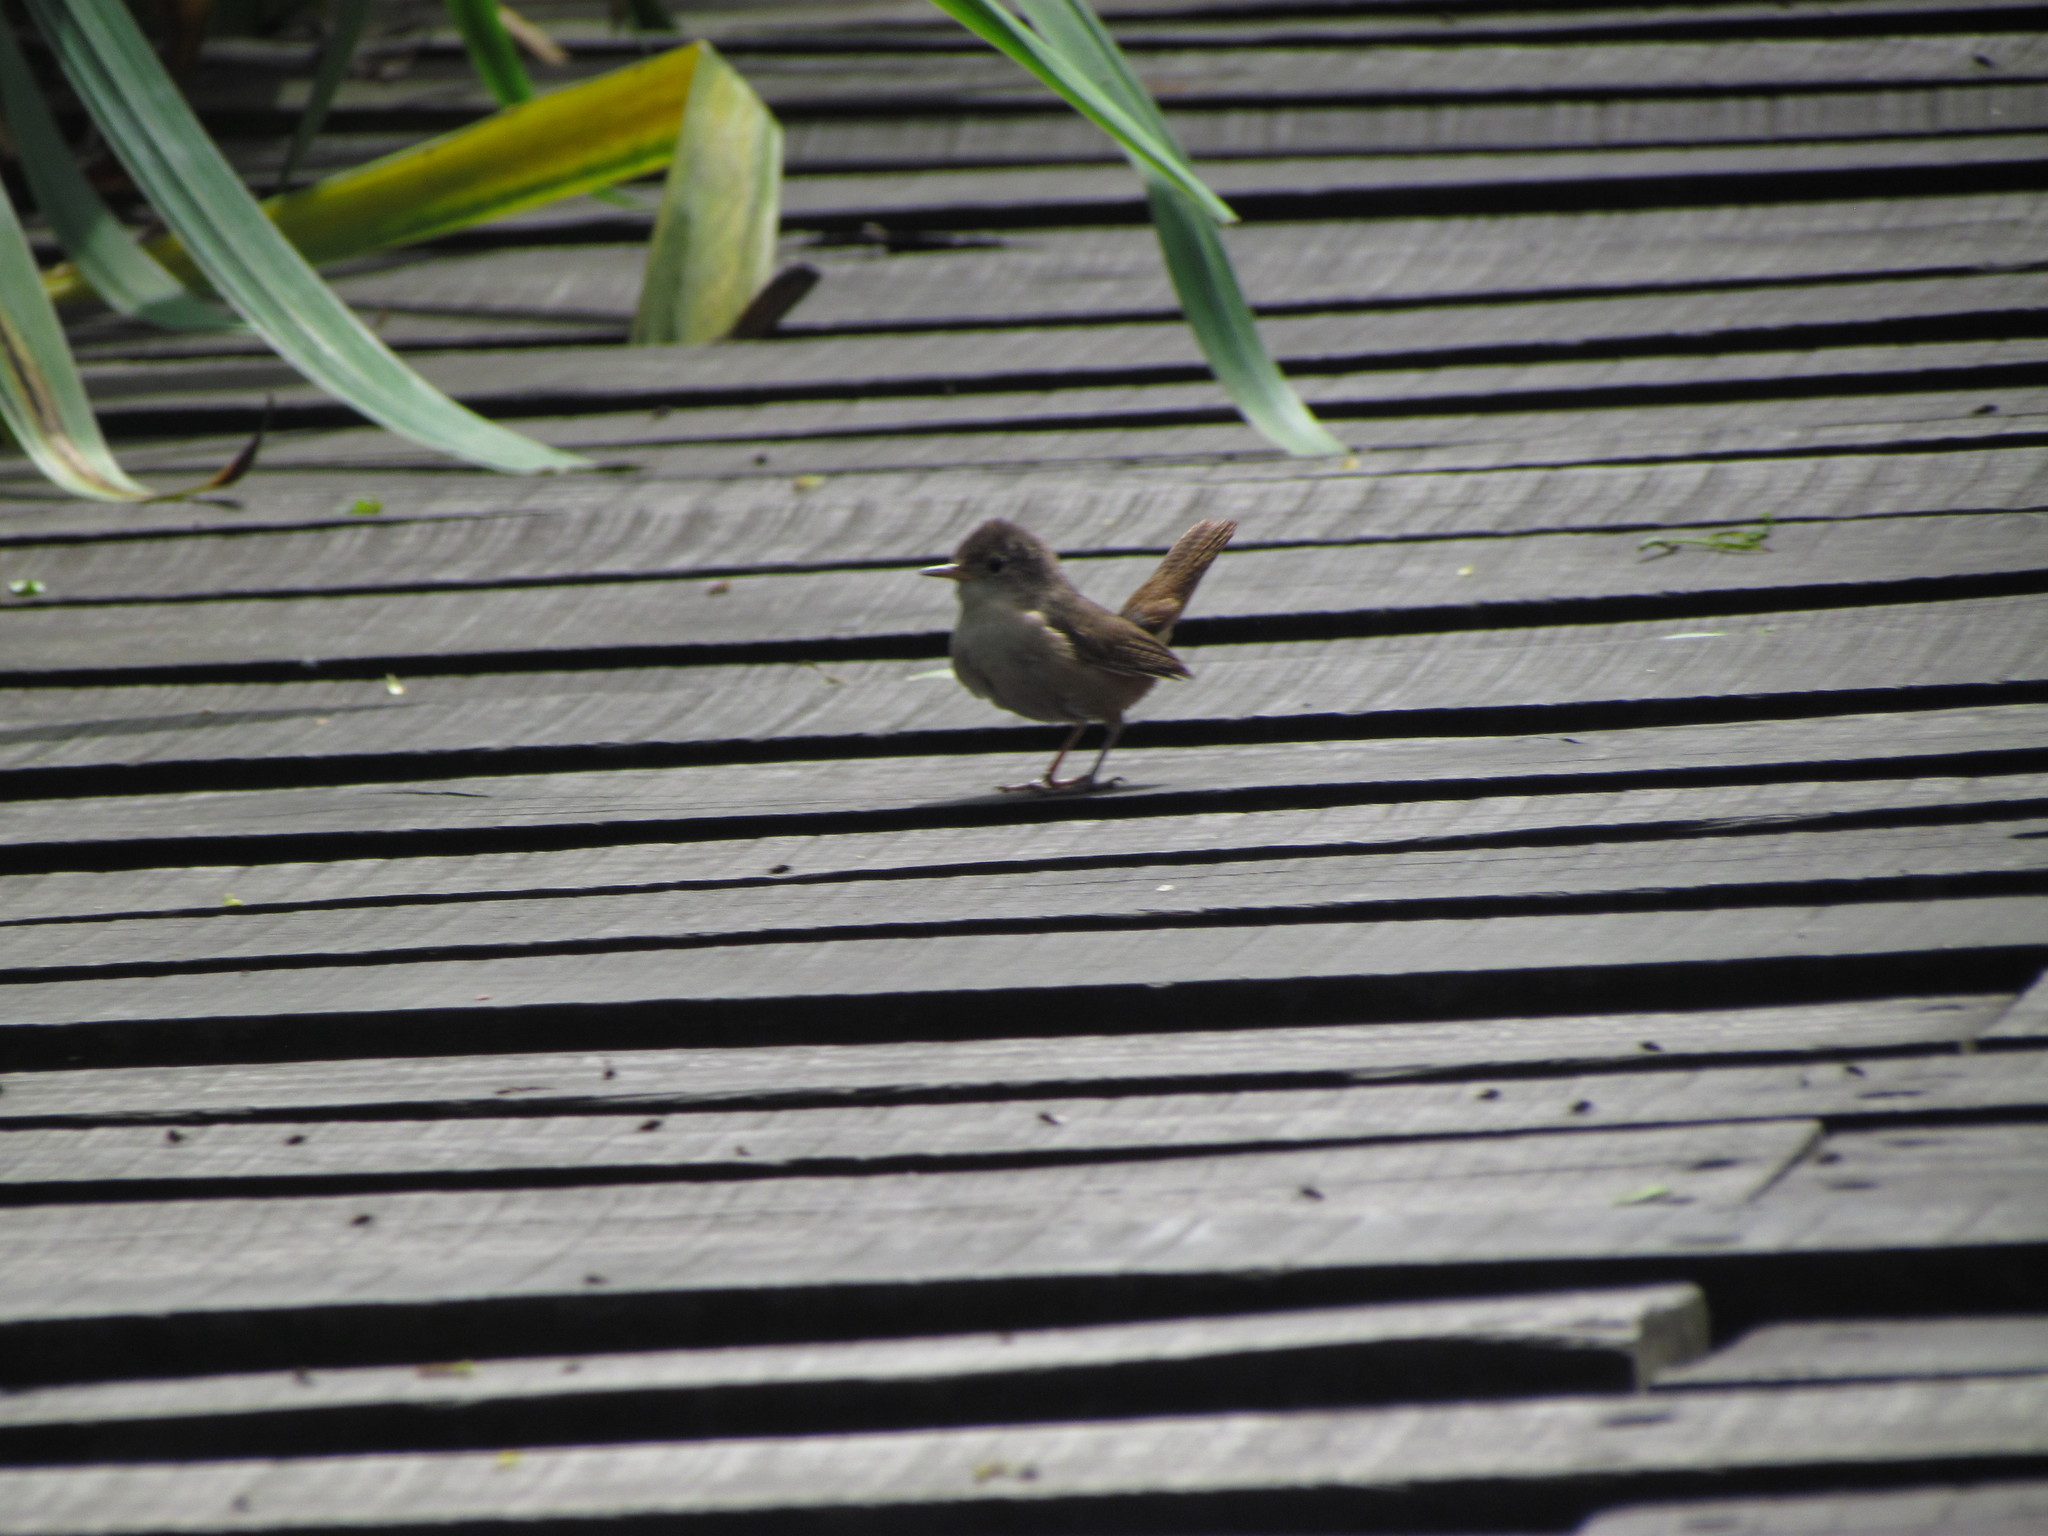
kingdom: Animalia
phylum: Chordata
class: Aves
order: Passeriformes
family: Troglodytidae
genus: Troglodytes
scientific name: Troglodytes aedon
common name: House wren
